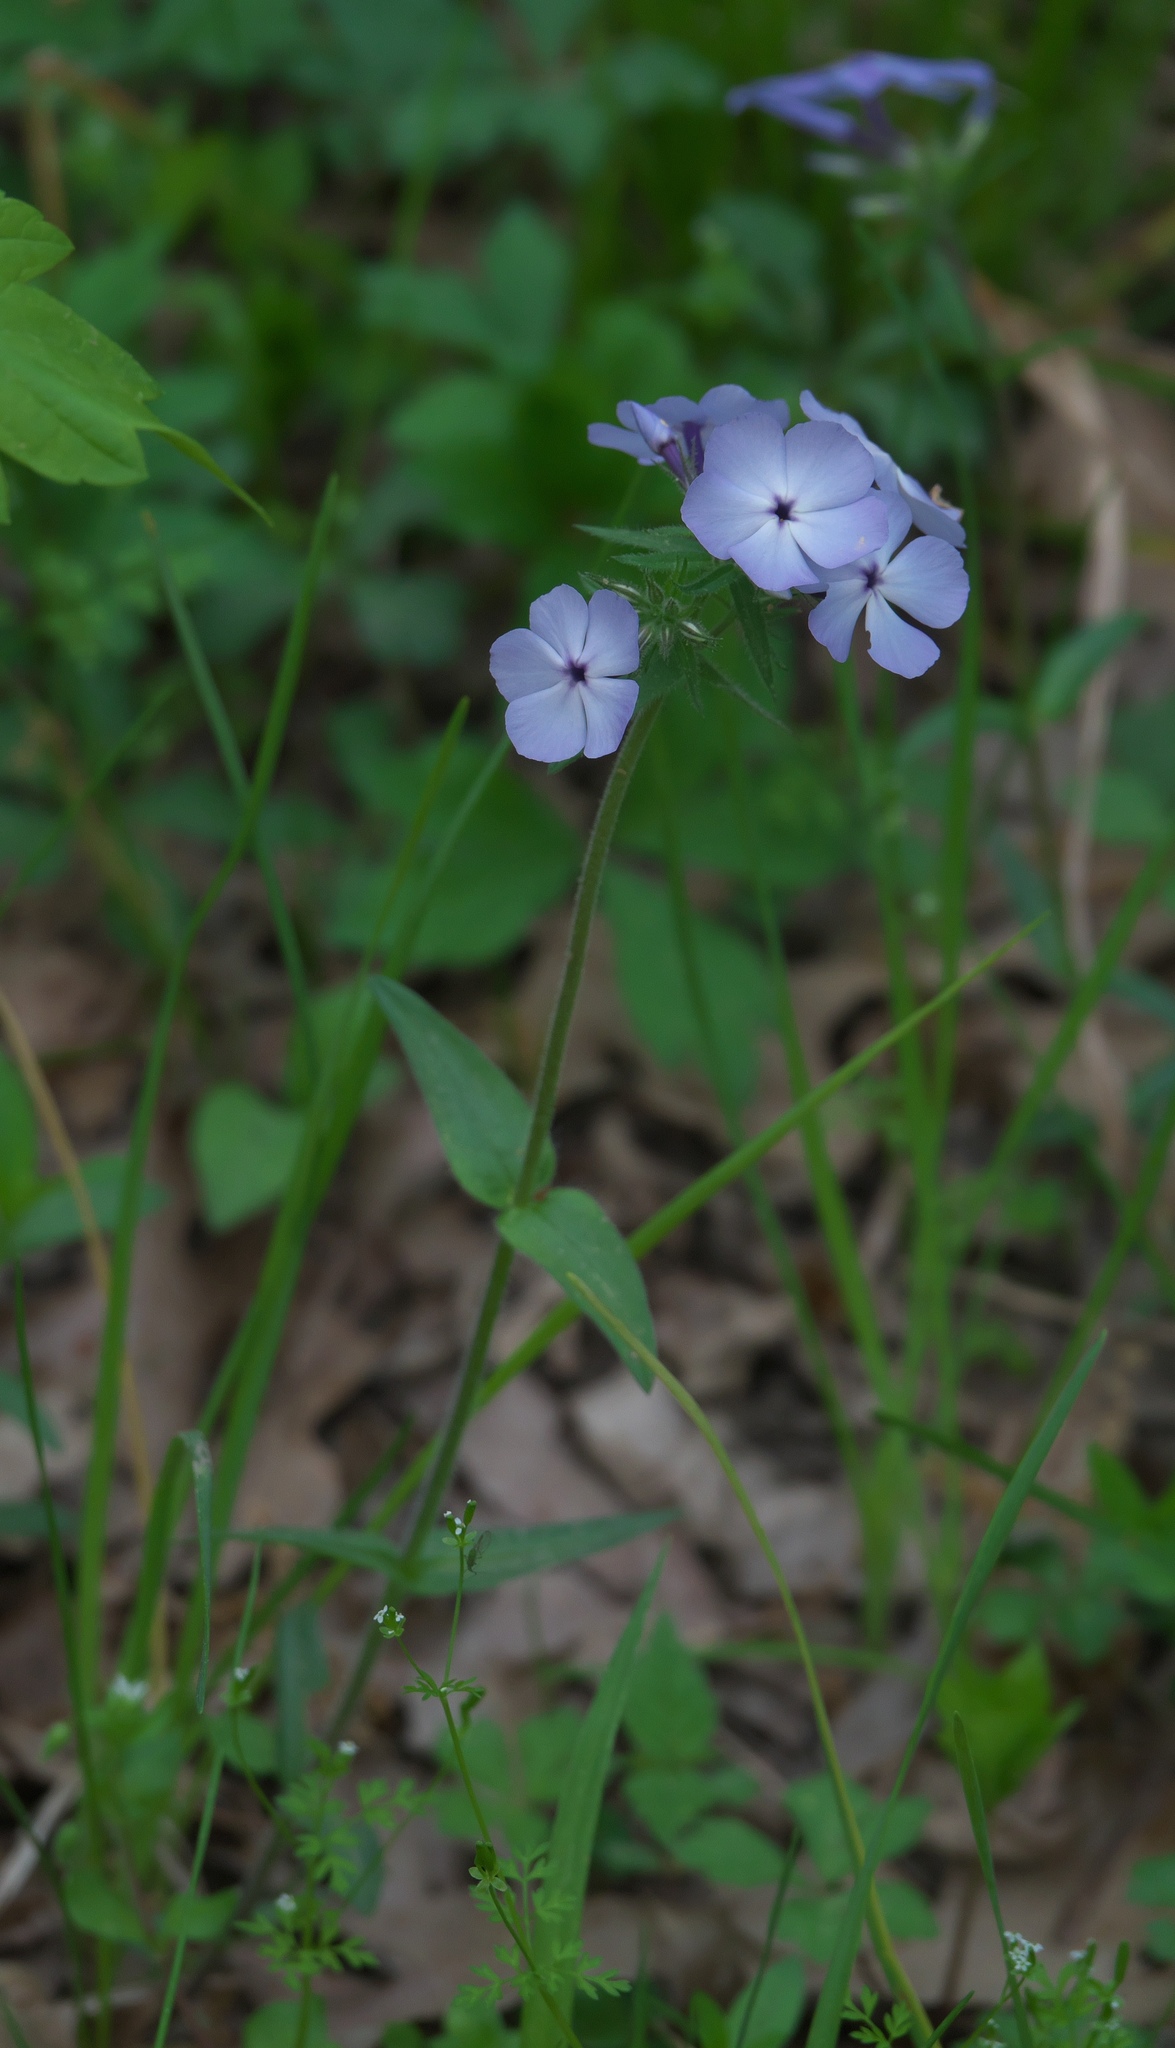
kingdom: Plantae
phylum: Tracheophyta
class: Magnoliopsida
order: Ericales
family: Polemoniaceae
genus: Phlox
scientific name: Phlox divaricata
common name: Blue phlox
